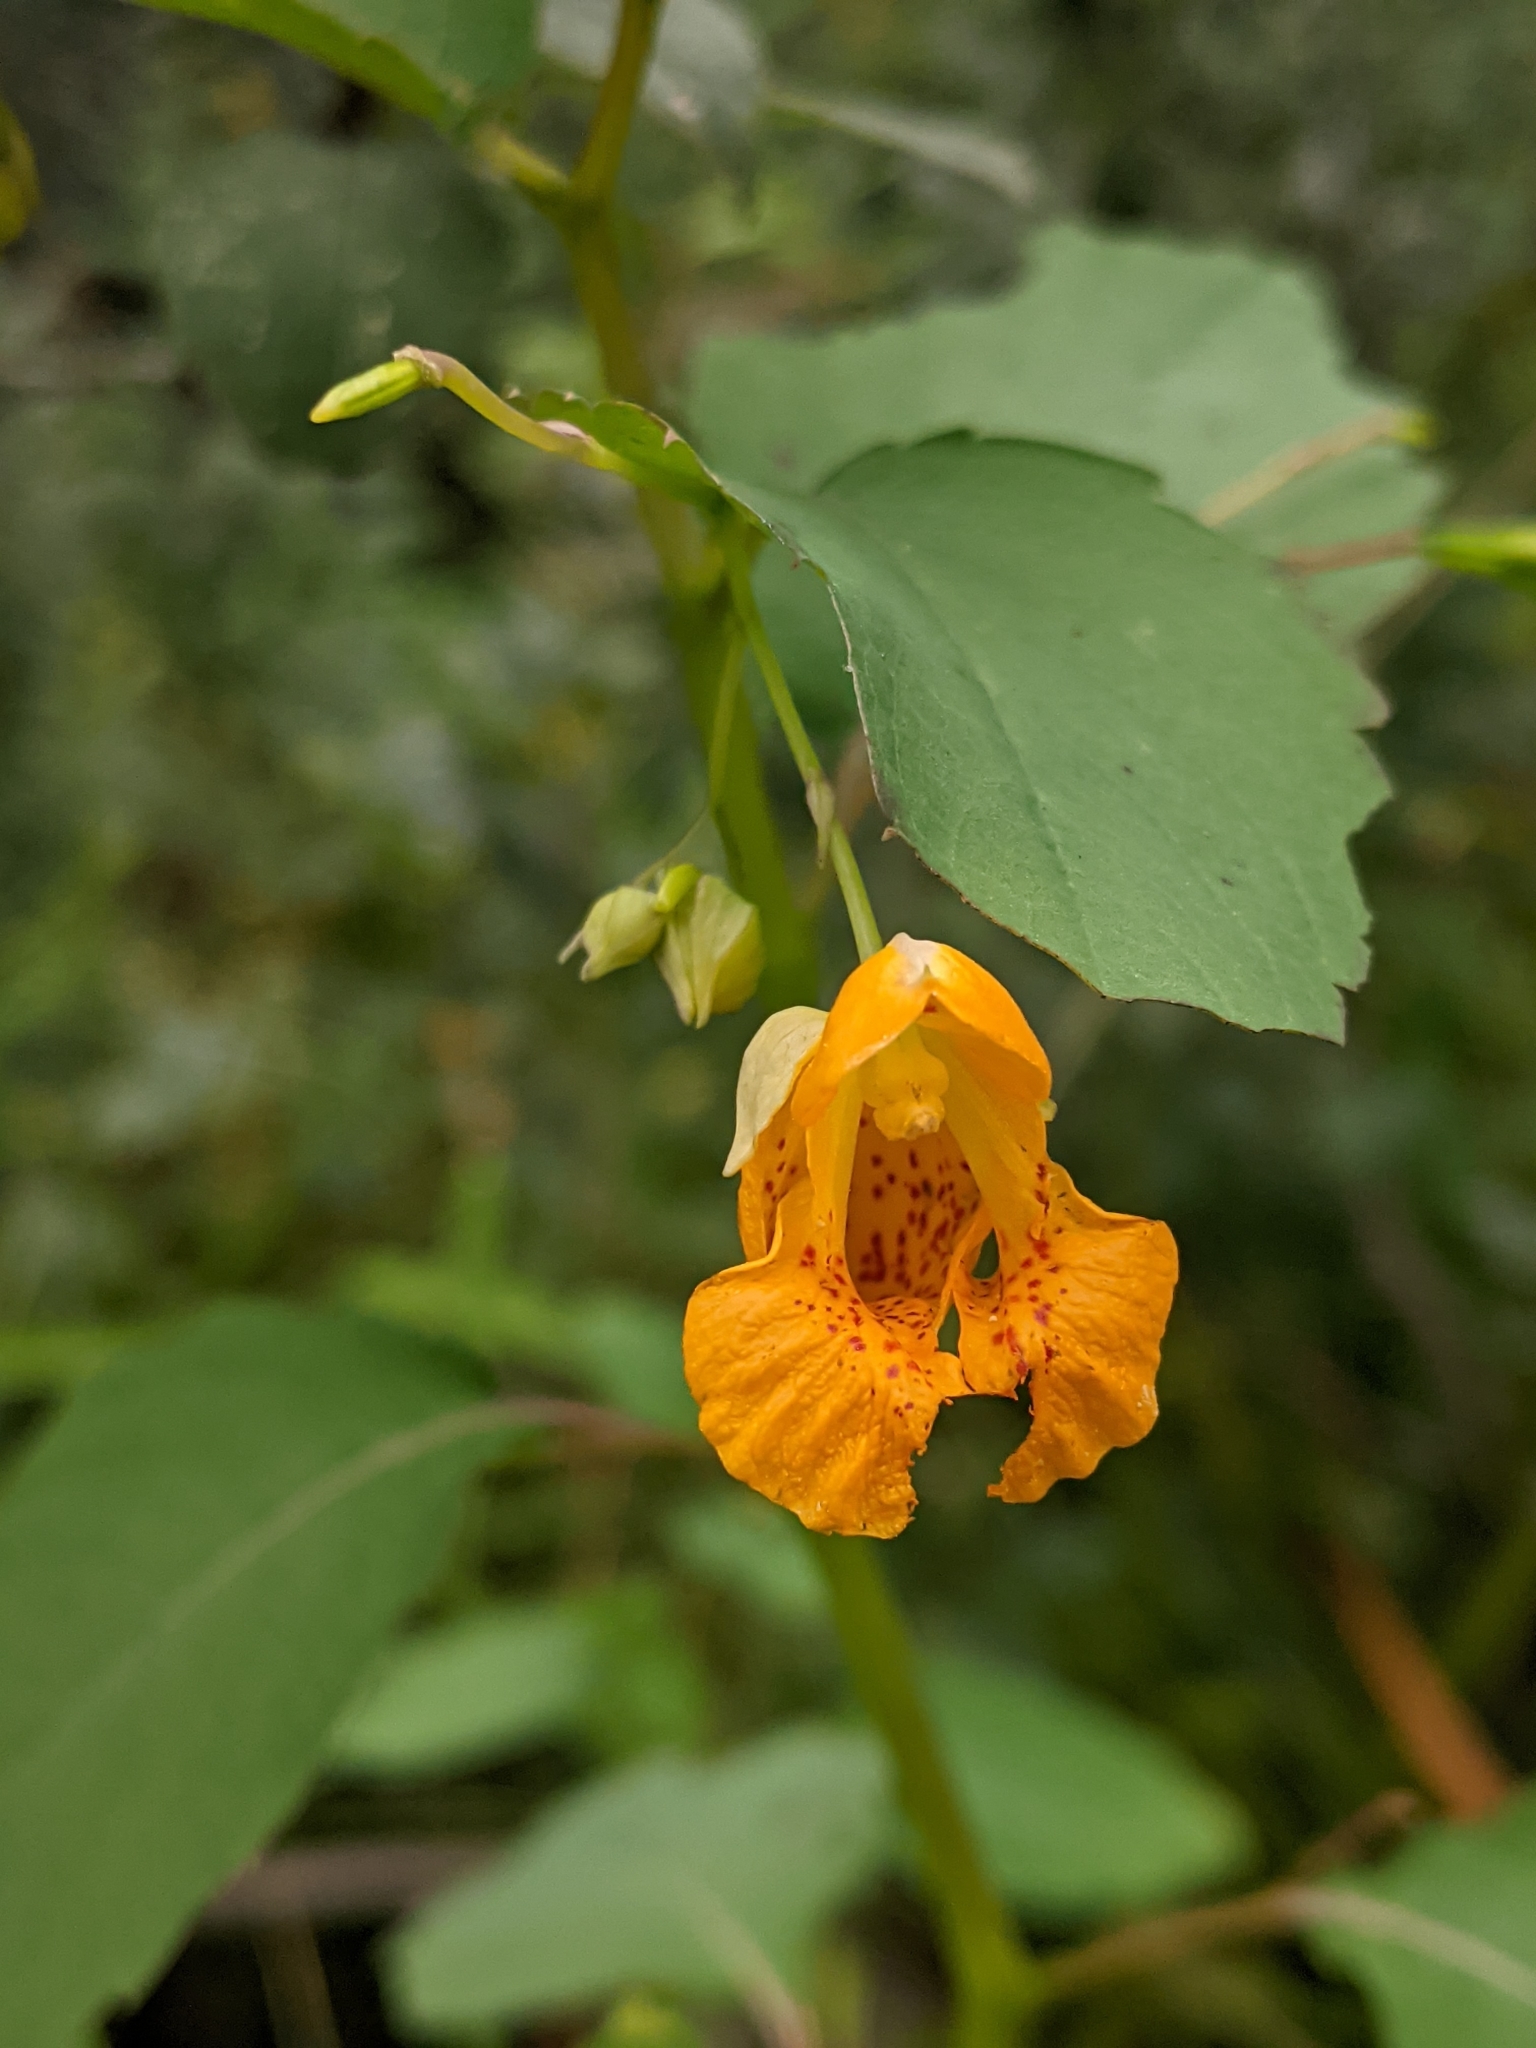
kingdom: Plantae
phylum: Tracheophyta
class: Magnoliopsida
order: Ericales
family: Balsaminaceae
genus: Impatiens
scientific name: Impatiens capensis
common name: Orange balsam
